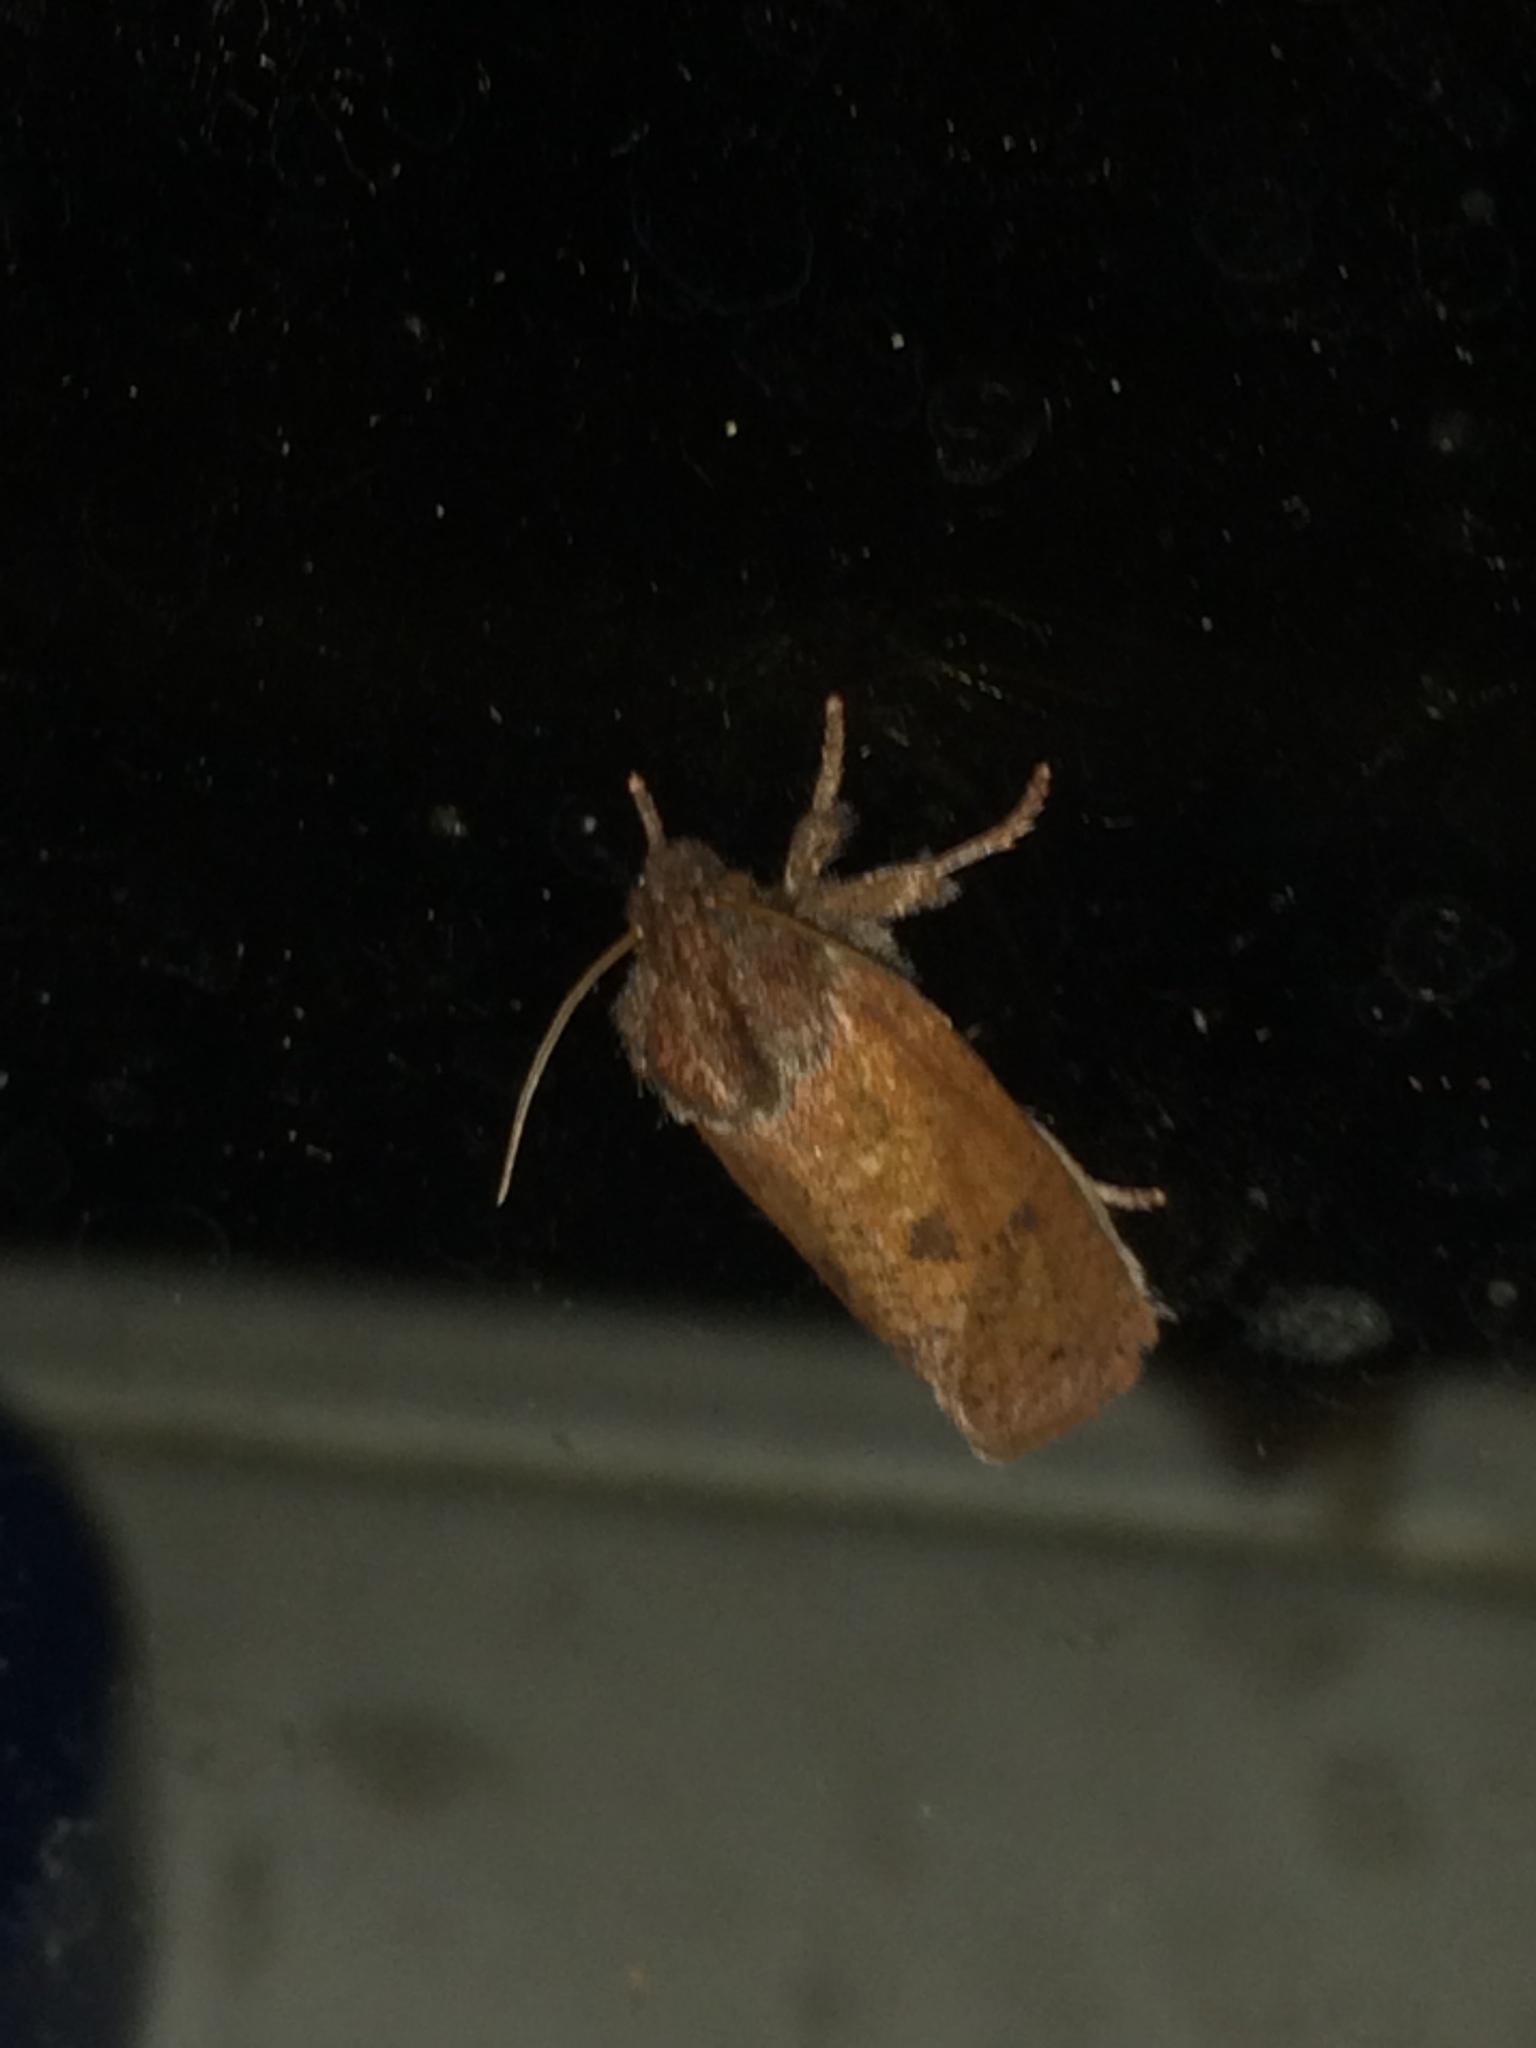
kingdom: Animalia
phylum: Arthropoda
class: Insecta
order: Lepidoptera
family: Tineidae
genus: Acrolophus
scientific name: Acrolophus plumifrontella
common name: Eastern grass tubeworm moth
